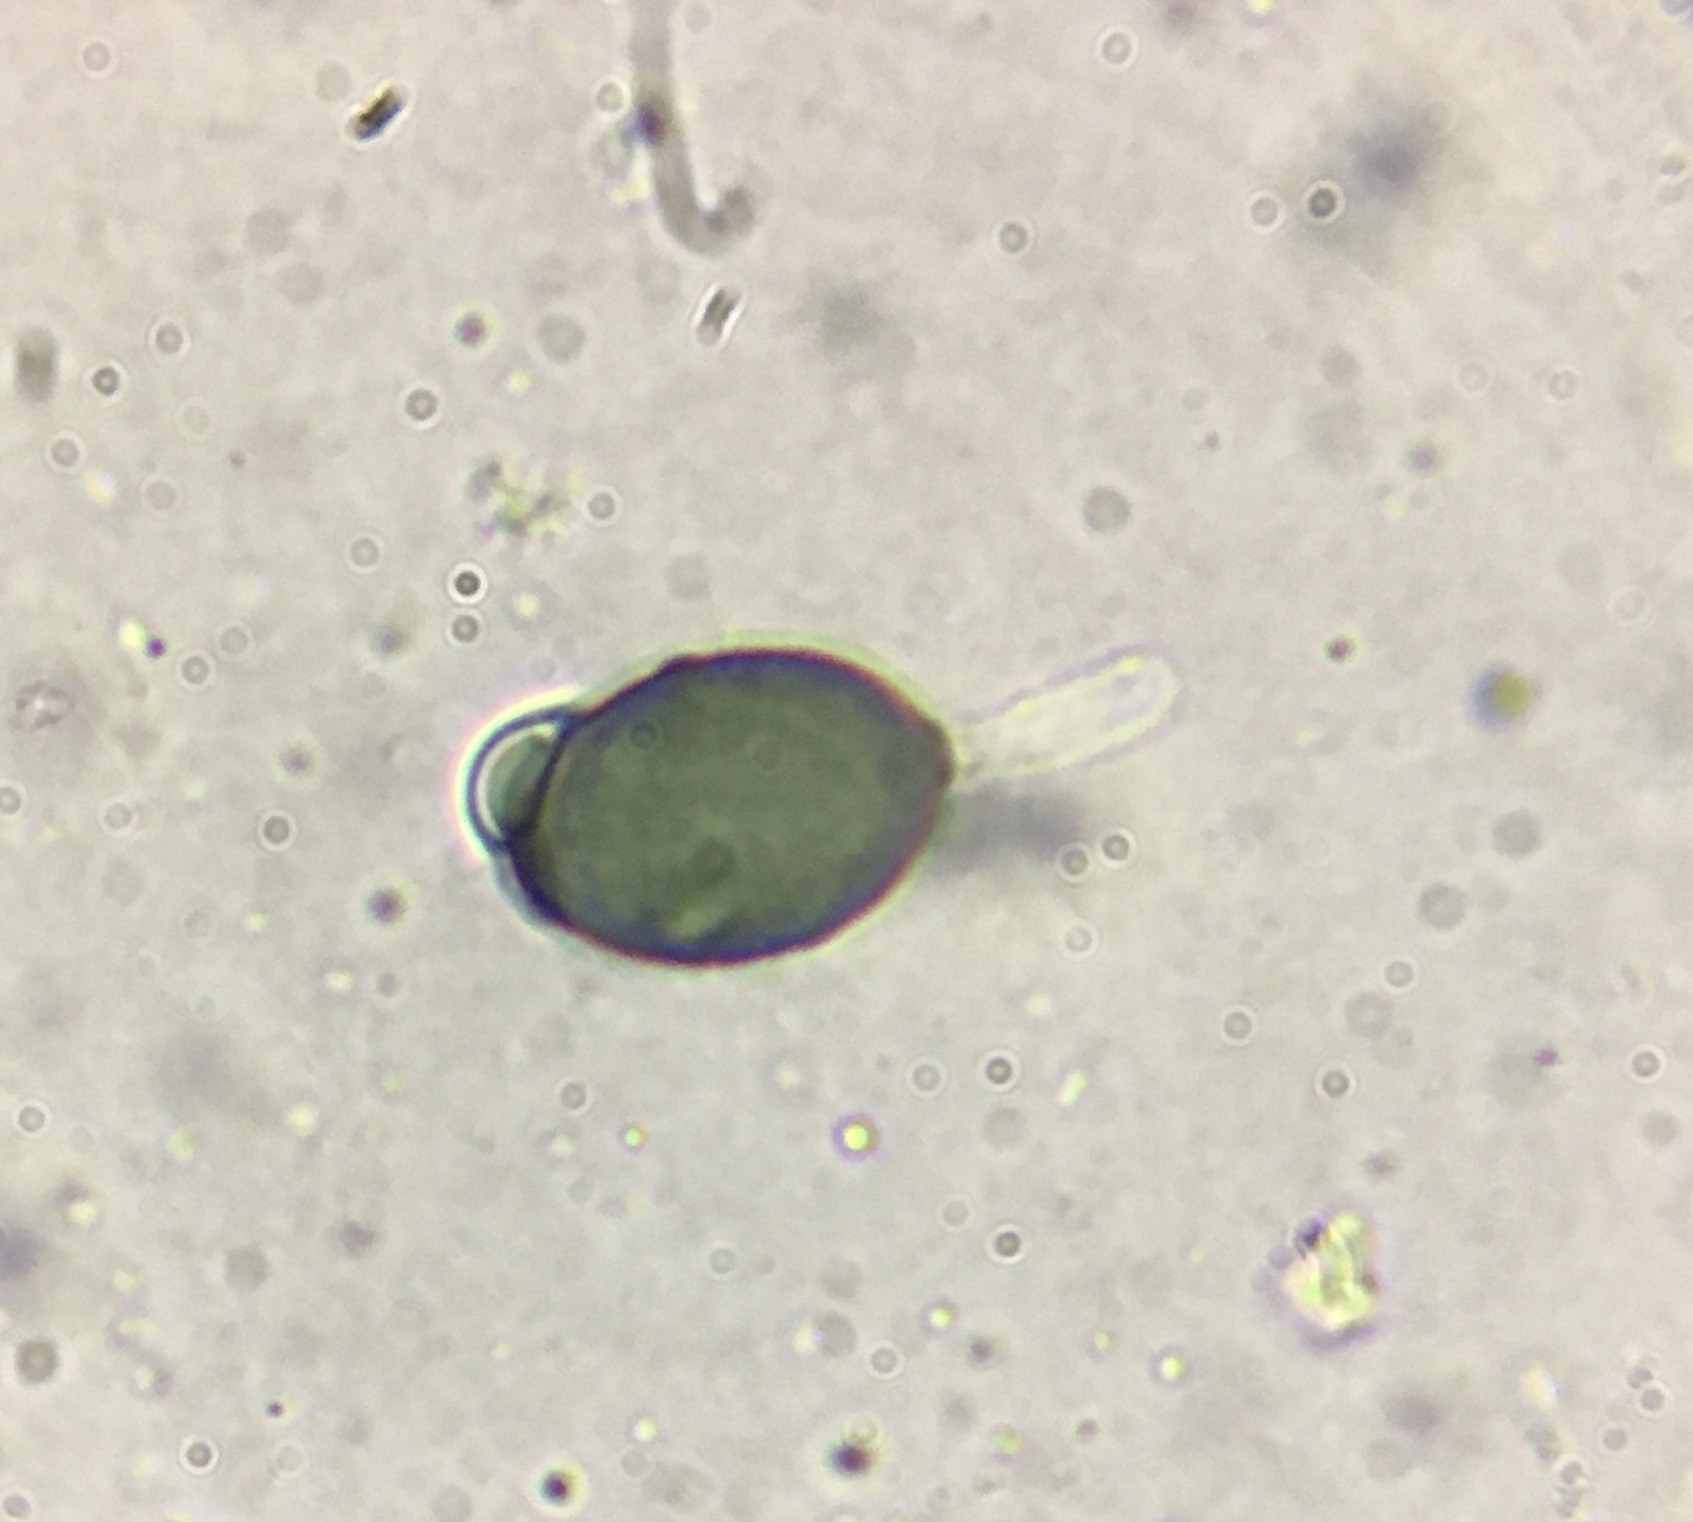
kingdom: Fungi
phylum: Ascomycota
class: Sordariomycetes
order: Sordariales
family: Schizotheciaceae
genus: Pseudoechria
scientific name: Pseudoechria curvicolla
